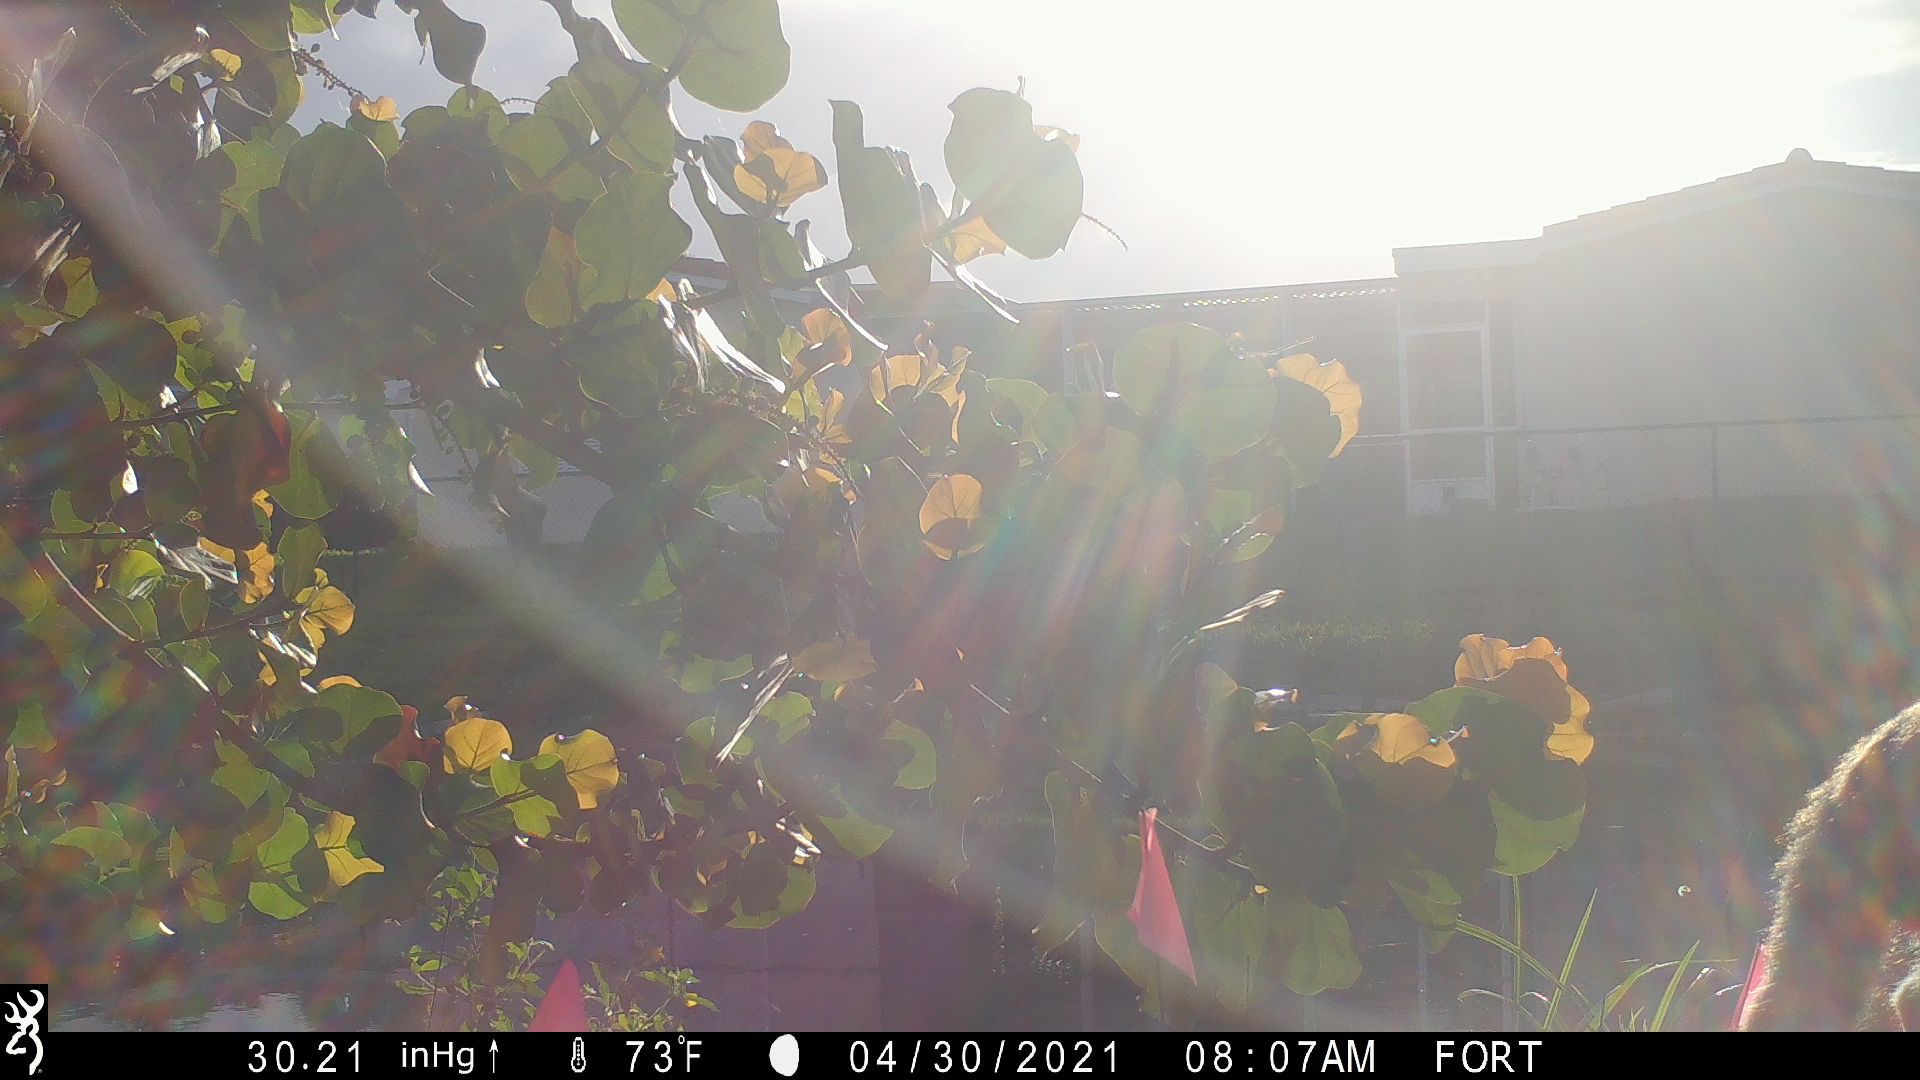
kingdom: Animalia
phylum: Chordata
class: Mammalia
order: Carnivora
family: Felidae
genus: Felis
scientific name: Felis catus
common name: Domestic cat
